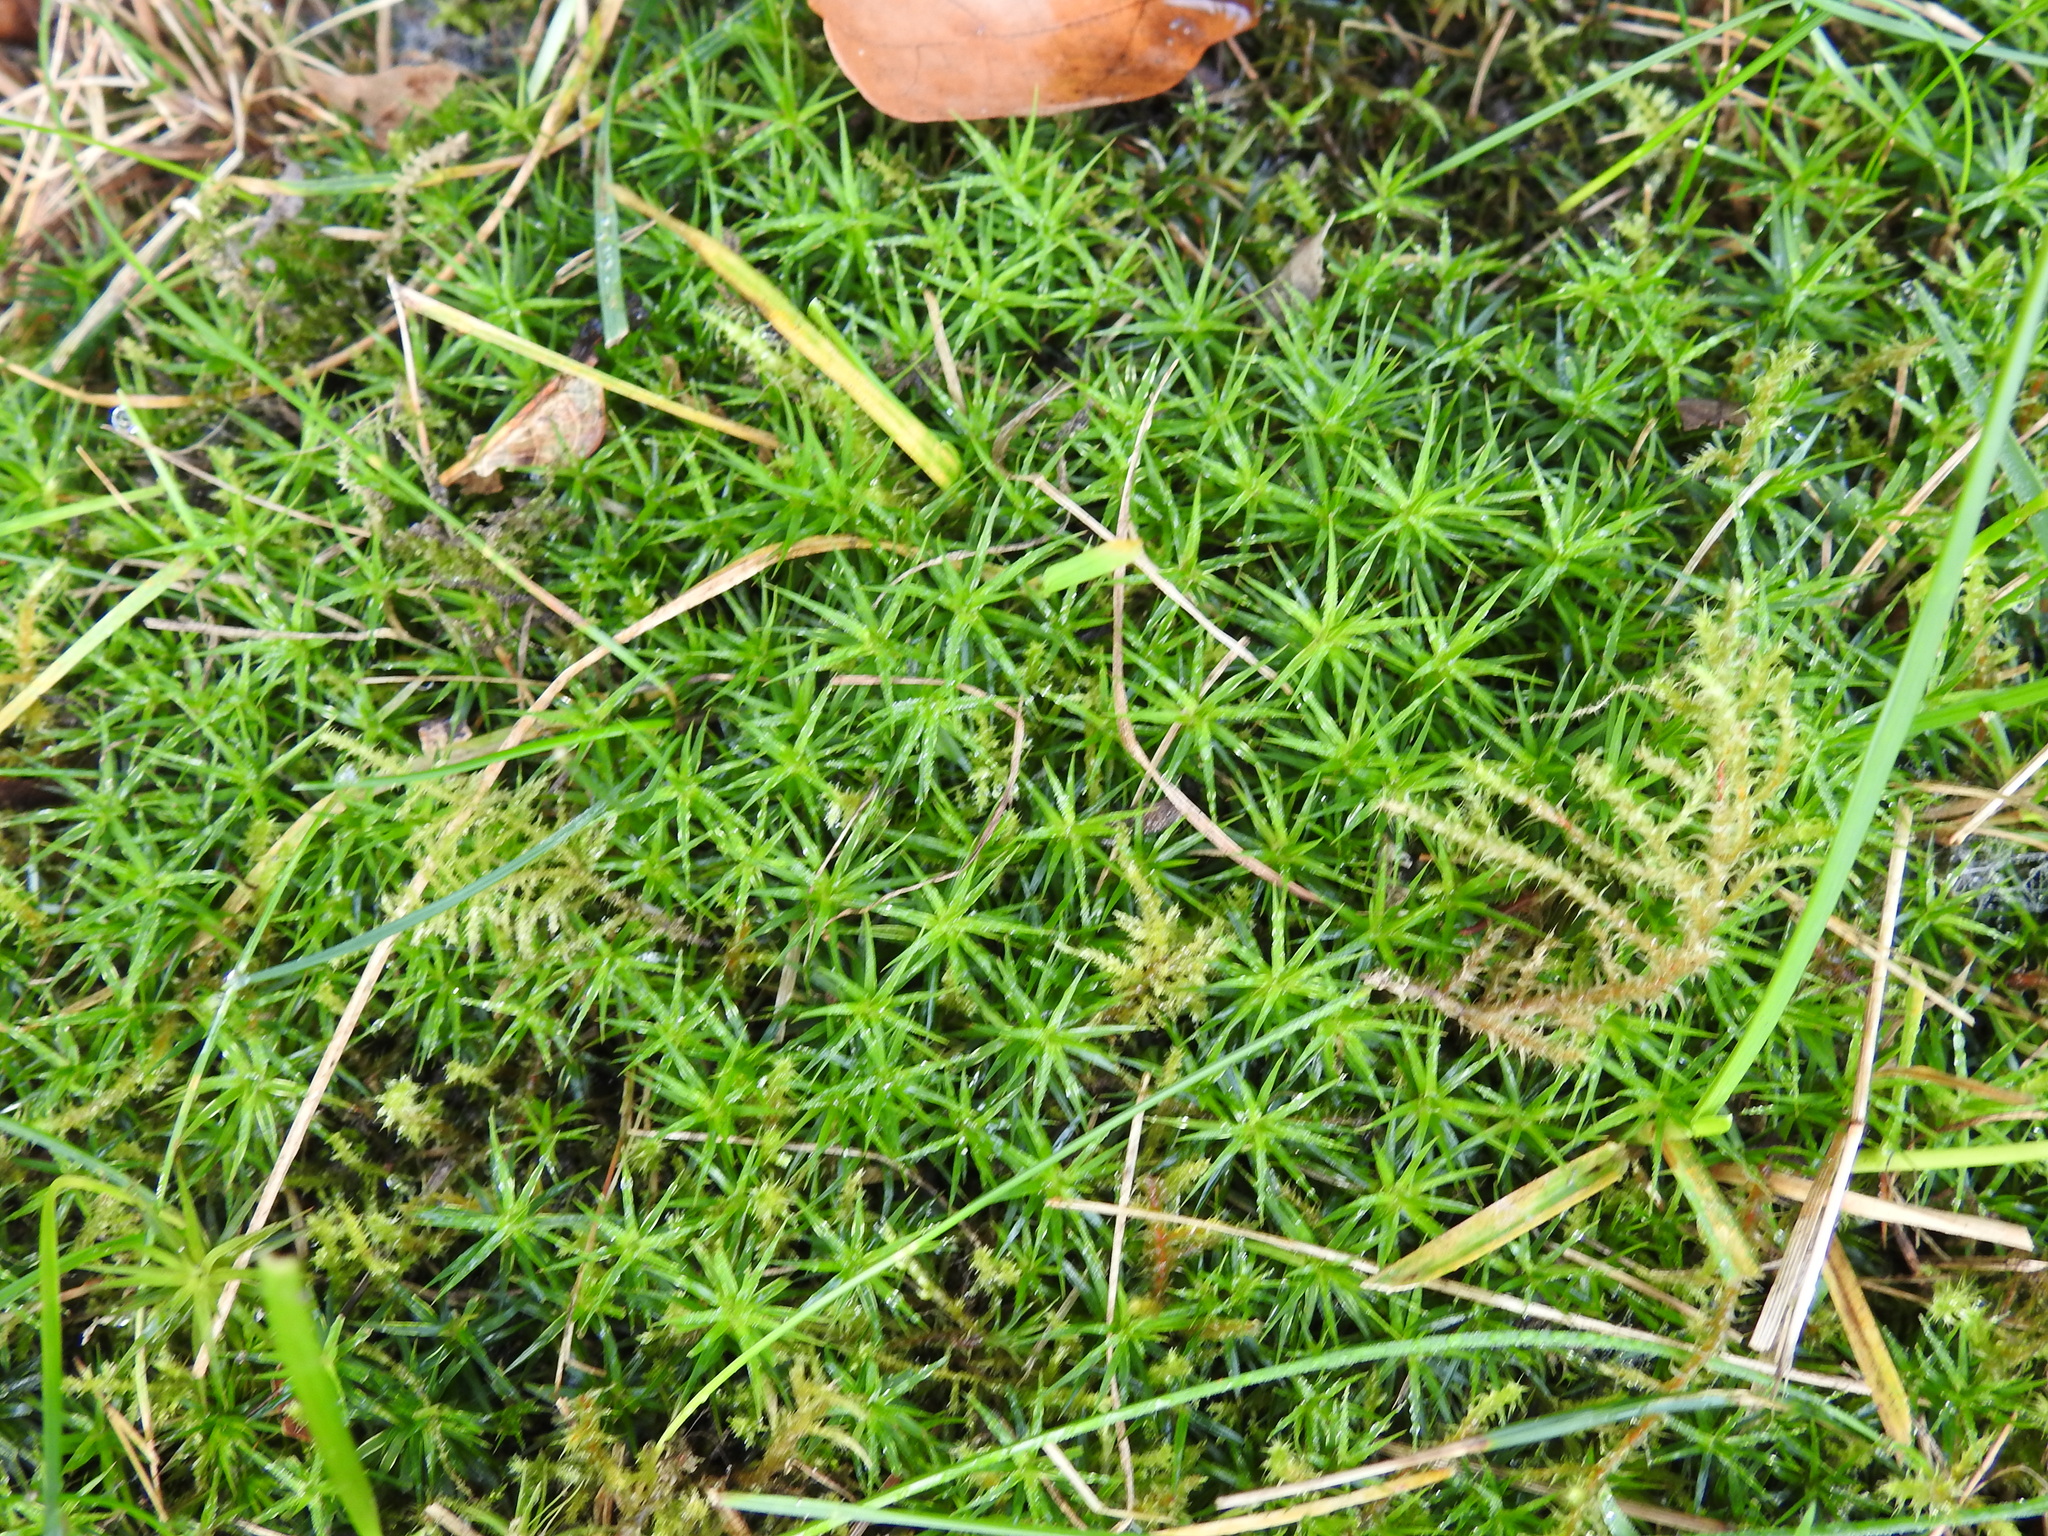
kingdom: Plantae
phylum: Bryophyta
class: Polytrichopsida
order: Polytrichales
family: Polytrichaceae
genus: Polytrichum
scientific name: Polytrichum formosum
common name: Bank haircap moss
